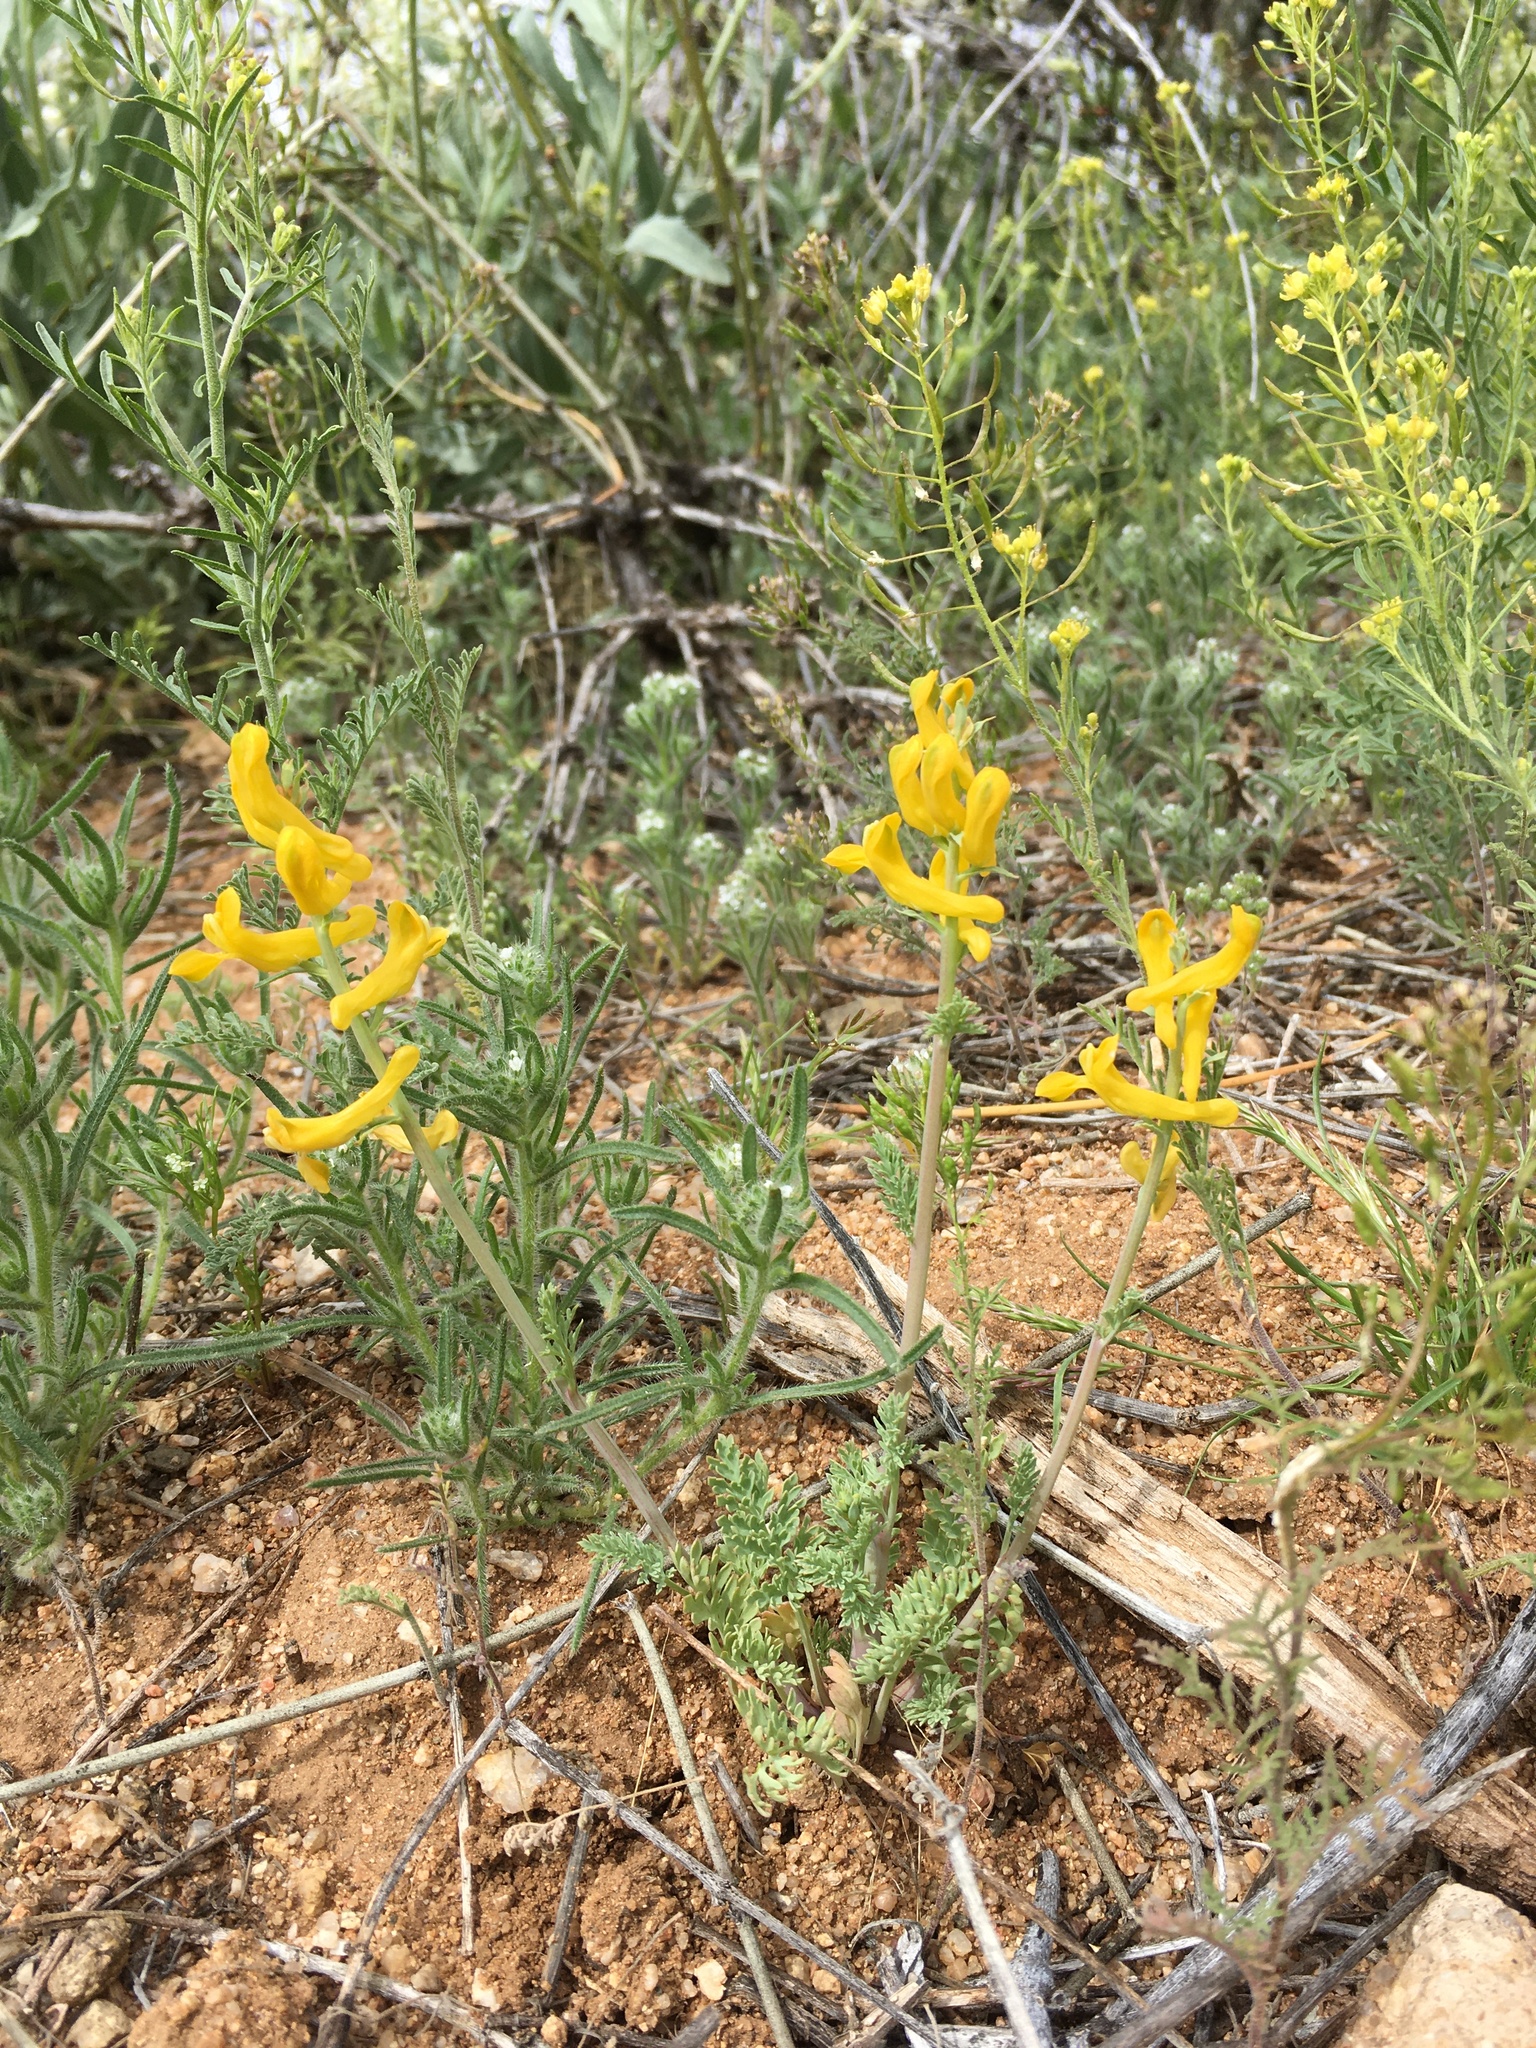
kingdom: Plantae
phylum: Tracheophyta
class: Magnoliopsida
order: Ranunculales
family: Papaveraceae
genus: Corydalis
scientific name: Corydalis aurea
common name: Golden corydalis
